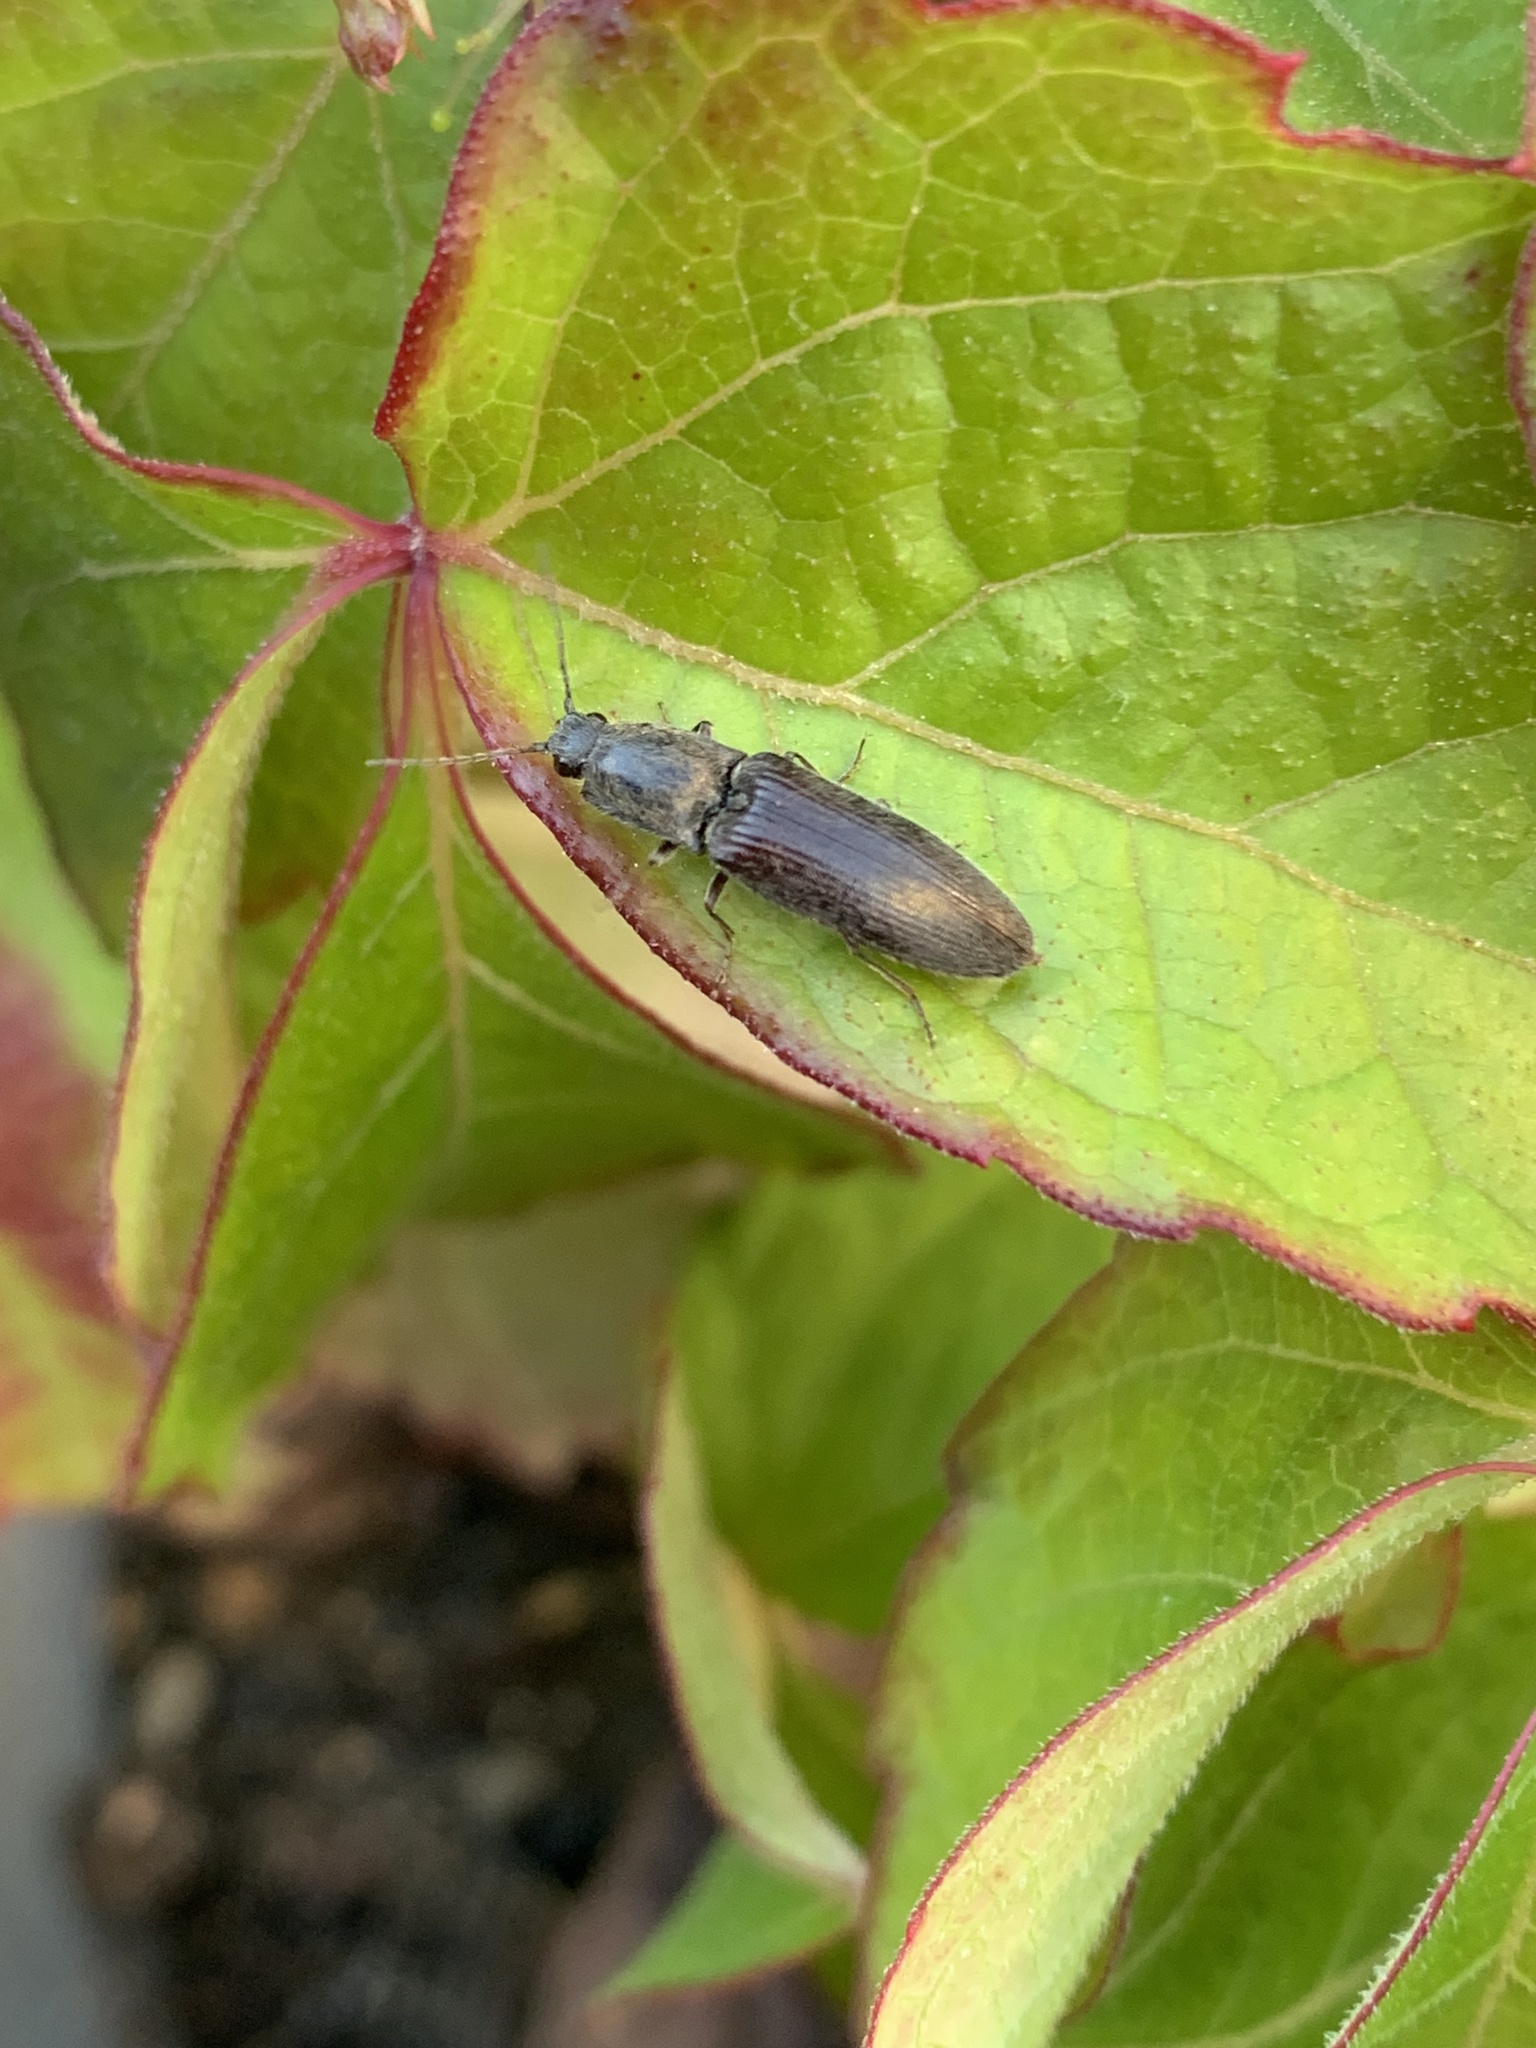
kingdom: Animalia
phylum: Arthropoda
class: Insecta
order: Coleoptera
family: Elateridae
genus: Athous
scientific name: Athous haemorrhoidalis
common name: Red-brown click beetle
